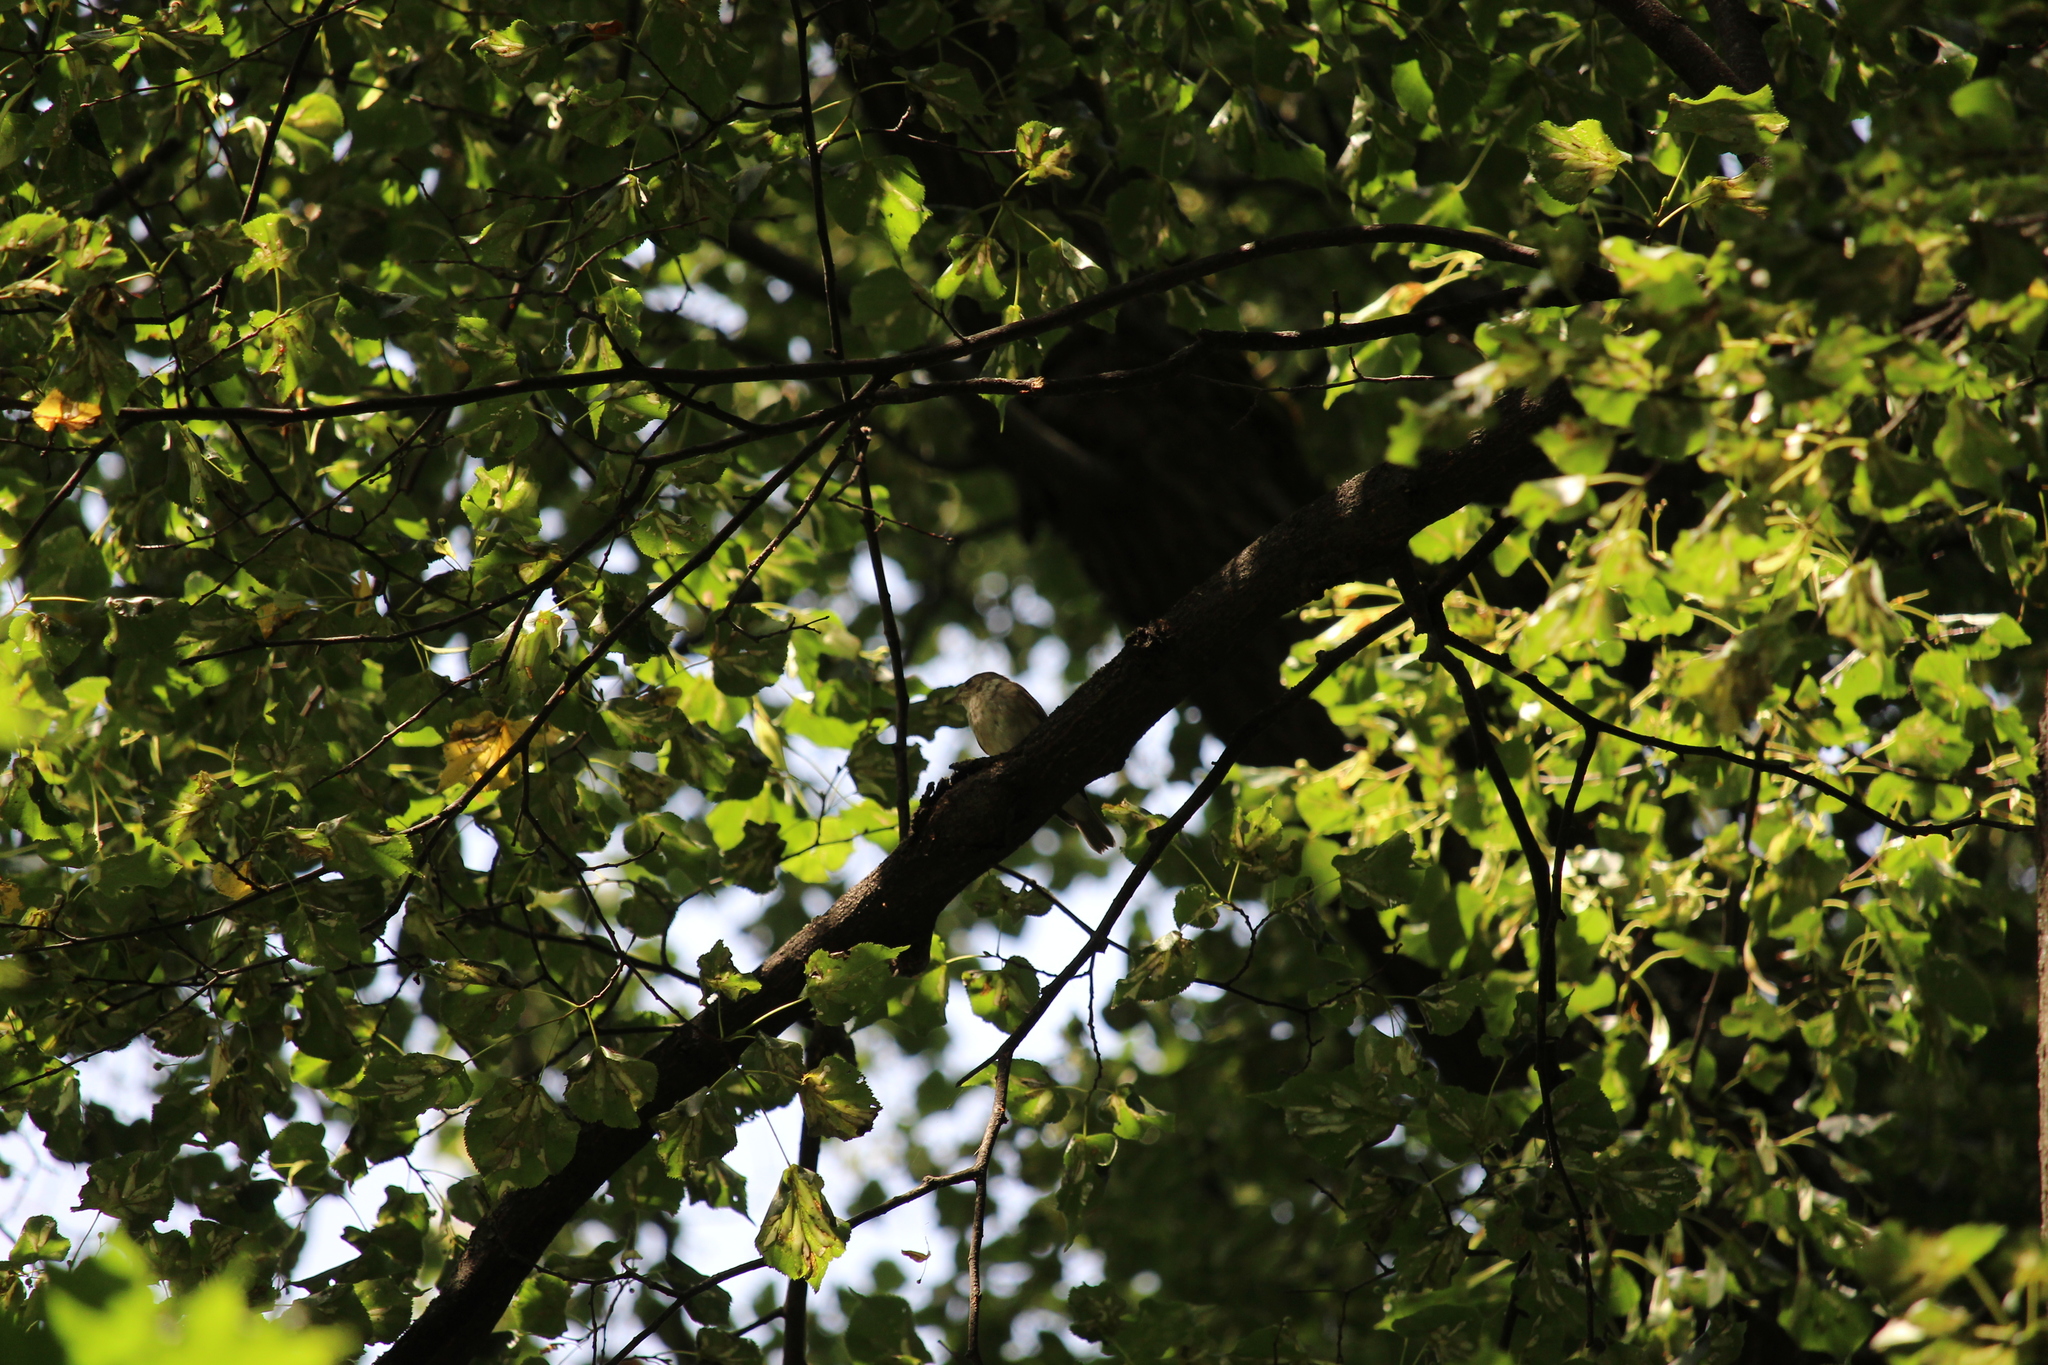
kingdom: Animalia
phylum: Chordata
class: Aves
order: Passeriformes
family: Muscicapidae
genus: Muscicapa
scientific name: Muscicapa striata
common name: Spotted flycatcher
